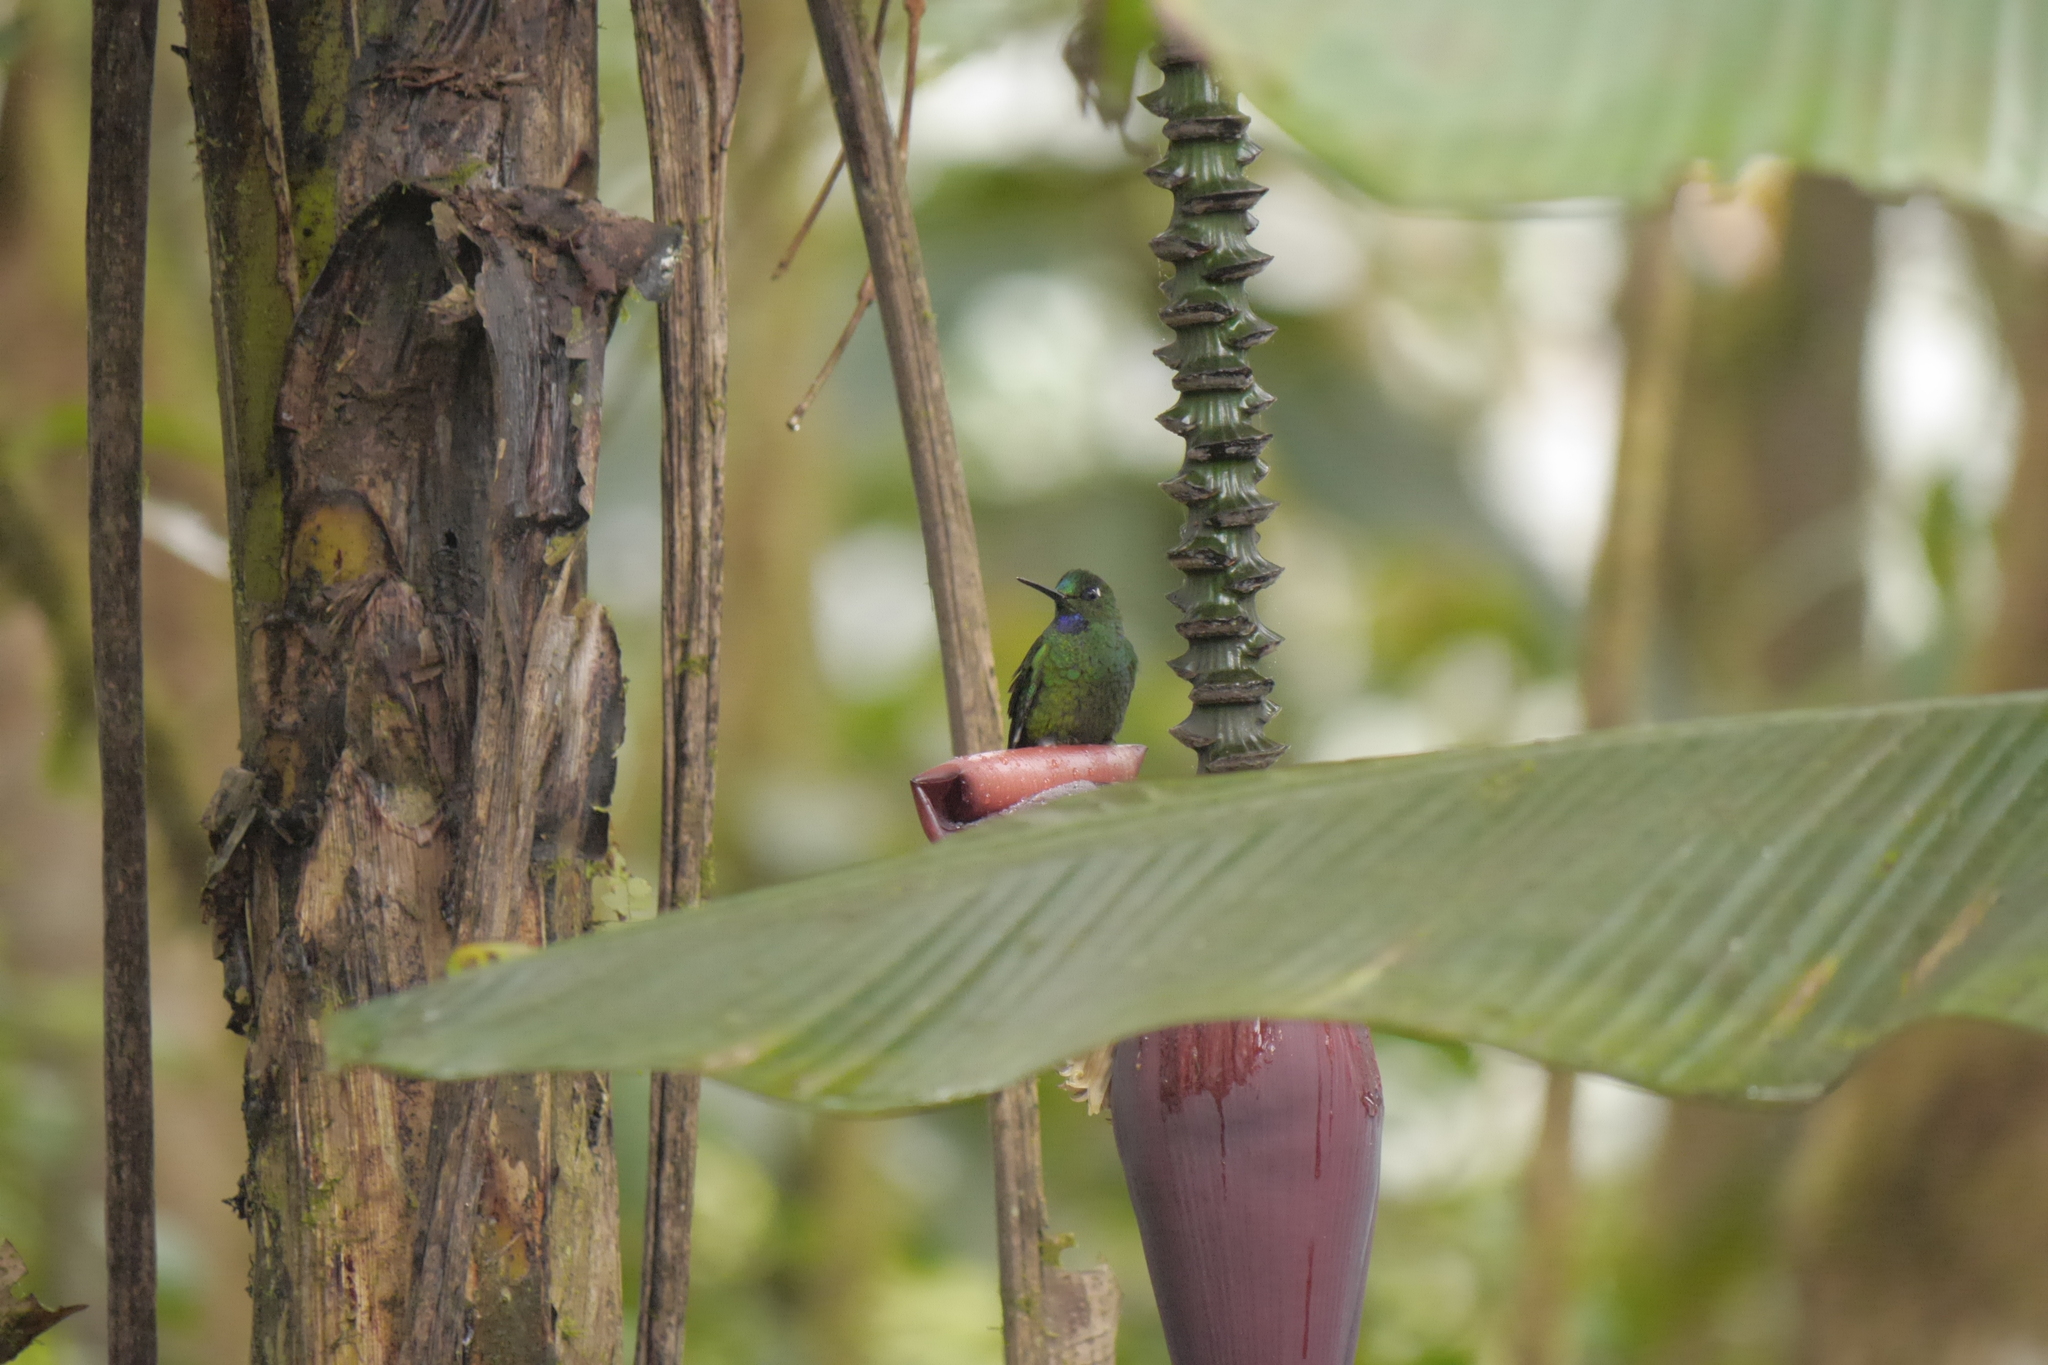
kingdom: Animalia
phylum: Chordata
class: Aves
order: Apodiformes
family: Trochilidae
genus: Heliodoxa
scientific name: Heliodoxa jacula
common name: Green-crowned brilliant
